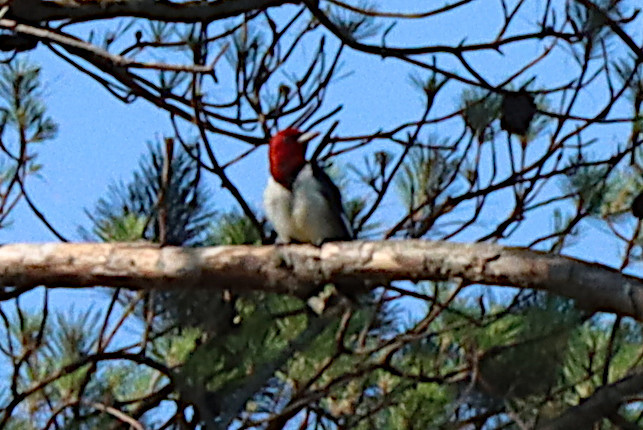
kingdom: Animalia
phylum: Chordata
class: Aves
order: Piciformes
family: Picidae
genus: Melanerpes
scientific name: Melanerpes erythrocephalus
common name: Red-headed woodpecker
